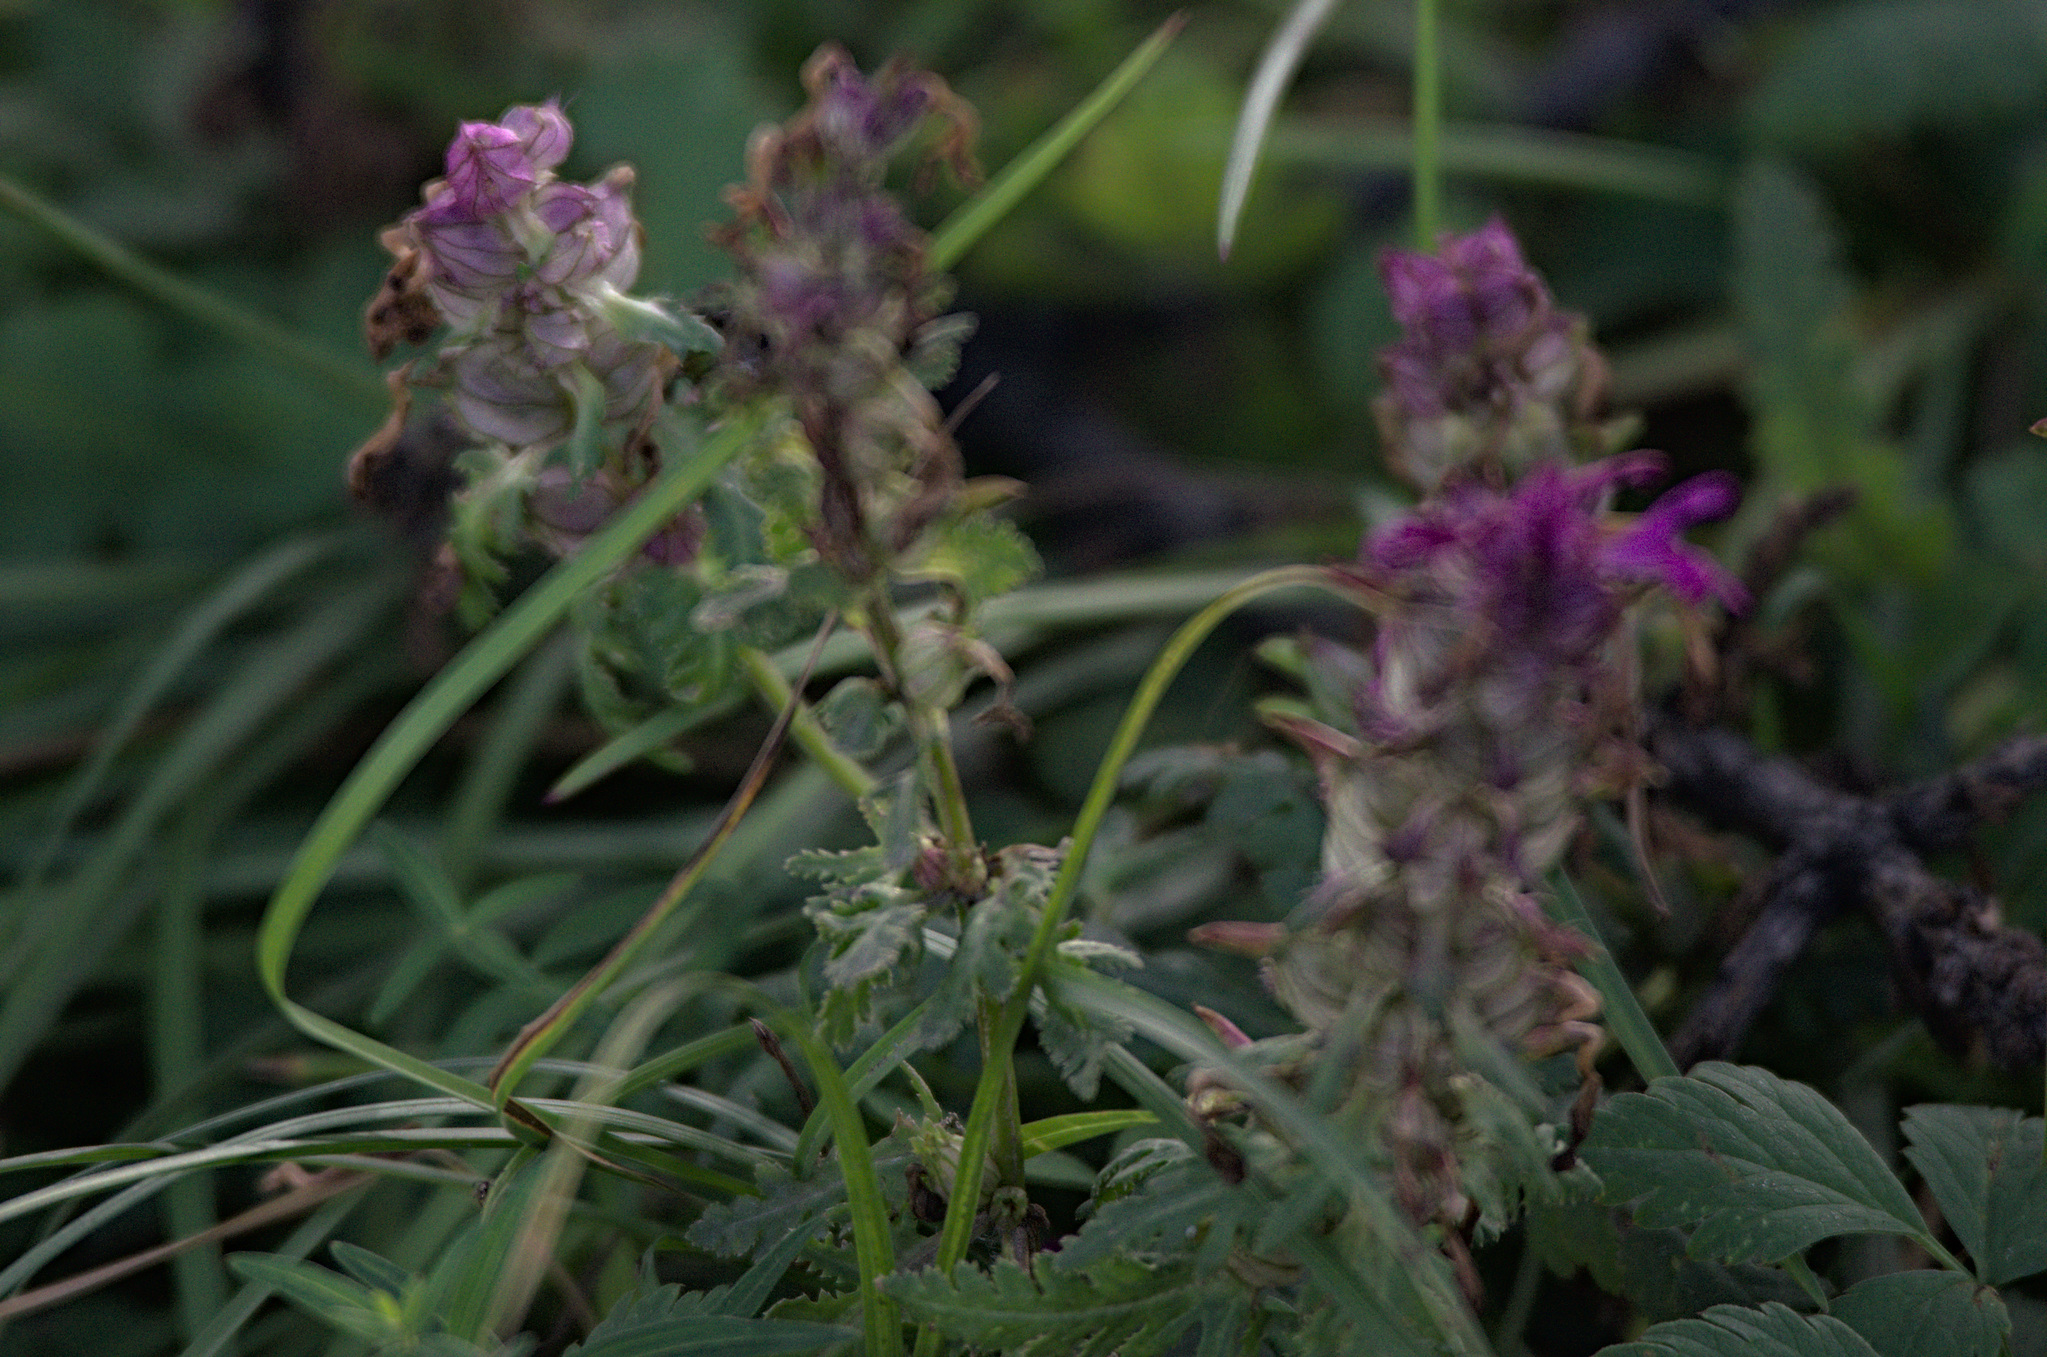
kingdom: Plantae
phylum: Tracheophyta
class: Magnoliopsida
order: Lamiales
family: Orobanchaceae
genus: Pedicularis
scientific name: Pedicularis verticillata
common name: Whorled lousewort
